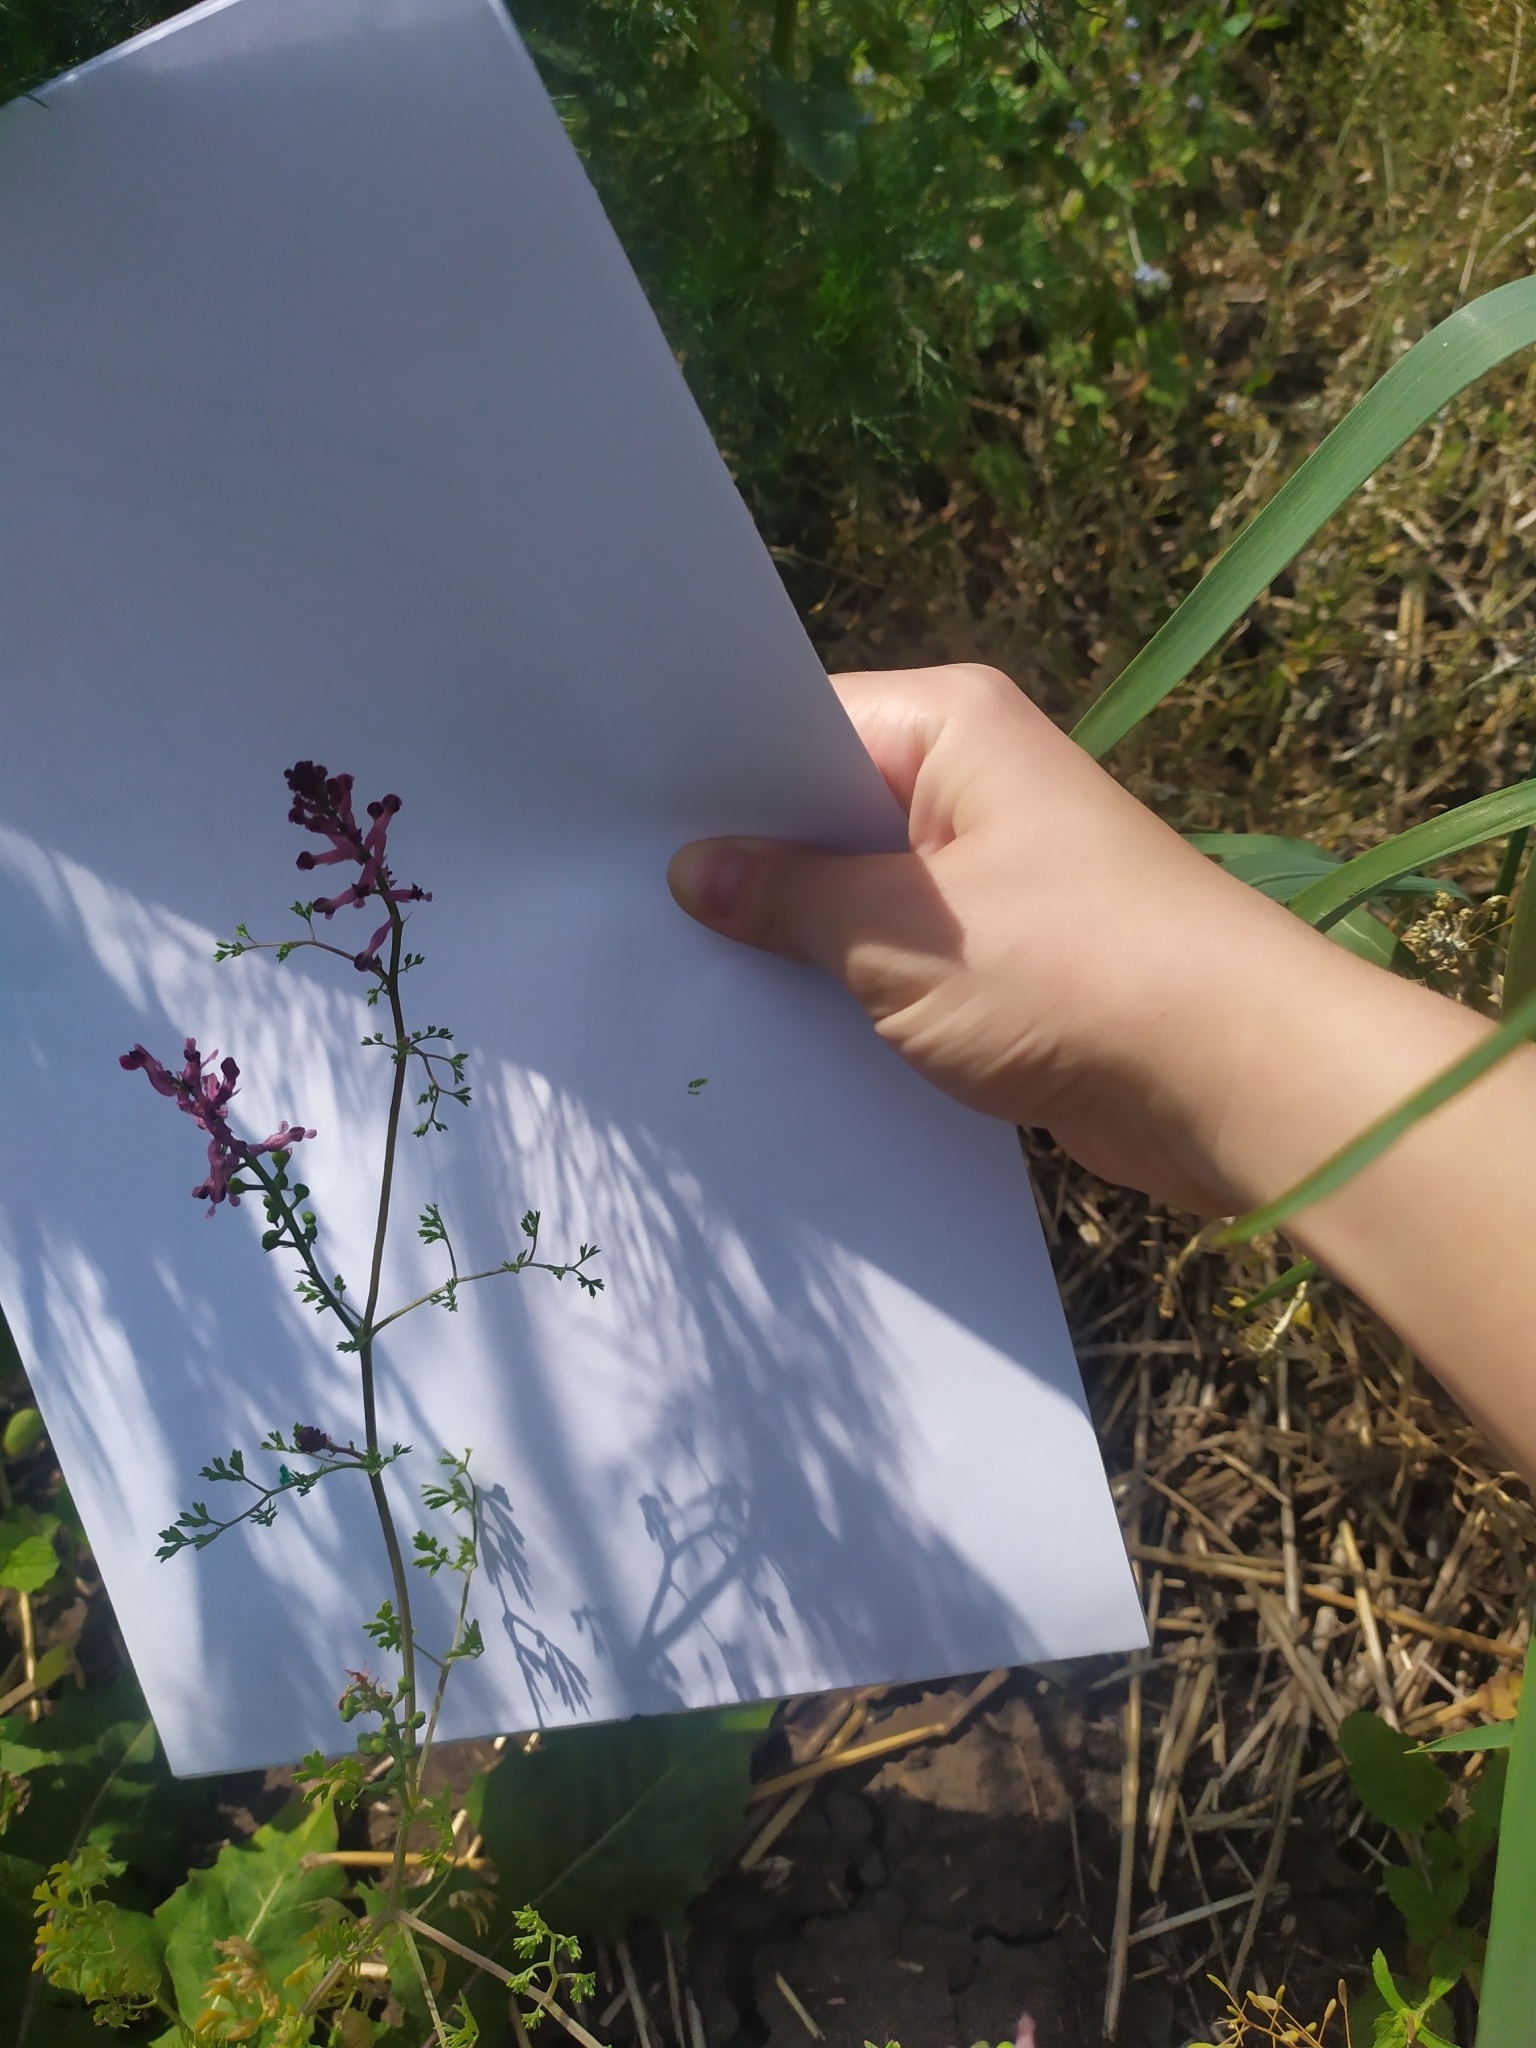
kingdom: Plantae
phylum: Tracheophyta
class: Magnoliopsida
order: Ranunculales
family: Papaveraceae
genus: Fumaria
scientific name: Fumaria officinalis
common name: Common fumitory
